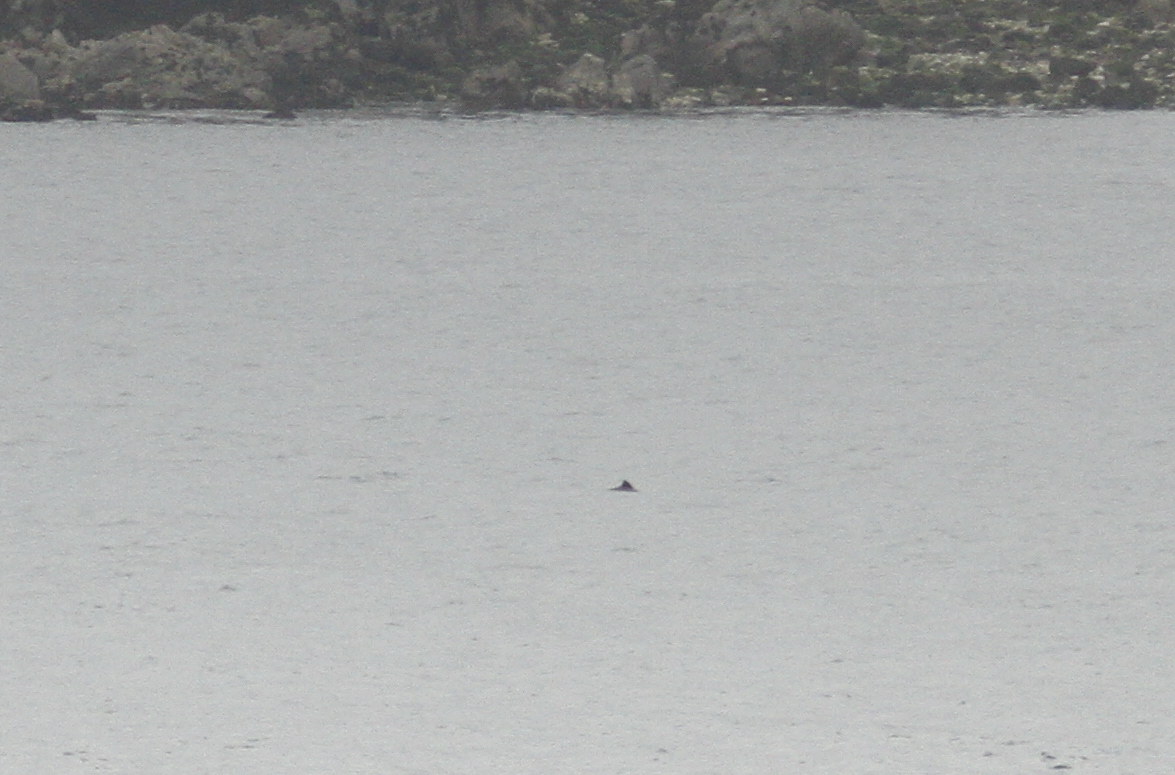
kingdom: Animalia
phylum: Chordata
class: Mammalia
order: Cetacea
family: Phocoenidae
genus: Phocoena
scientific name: Phocoena phocoena
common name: Harbor porpoise
